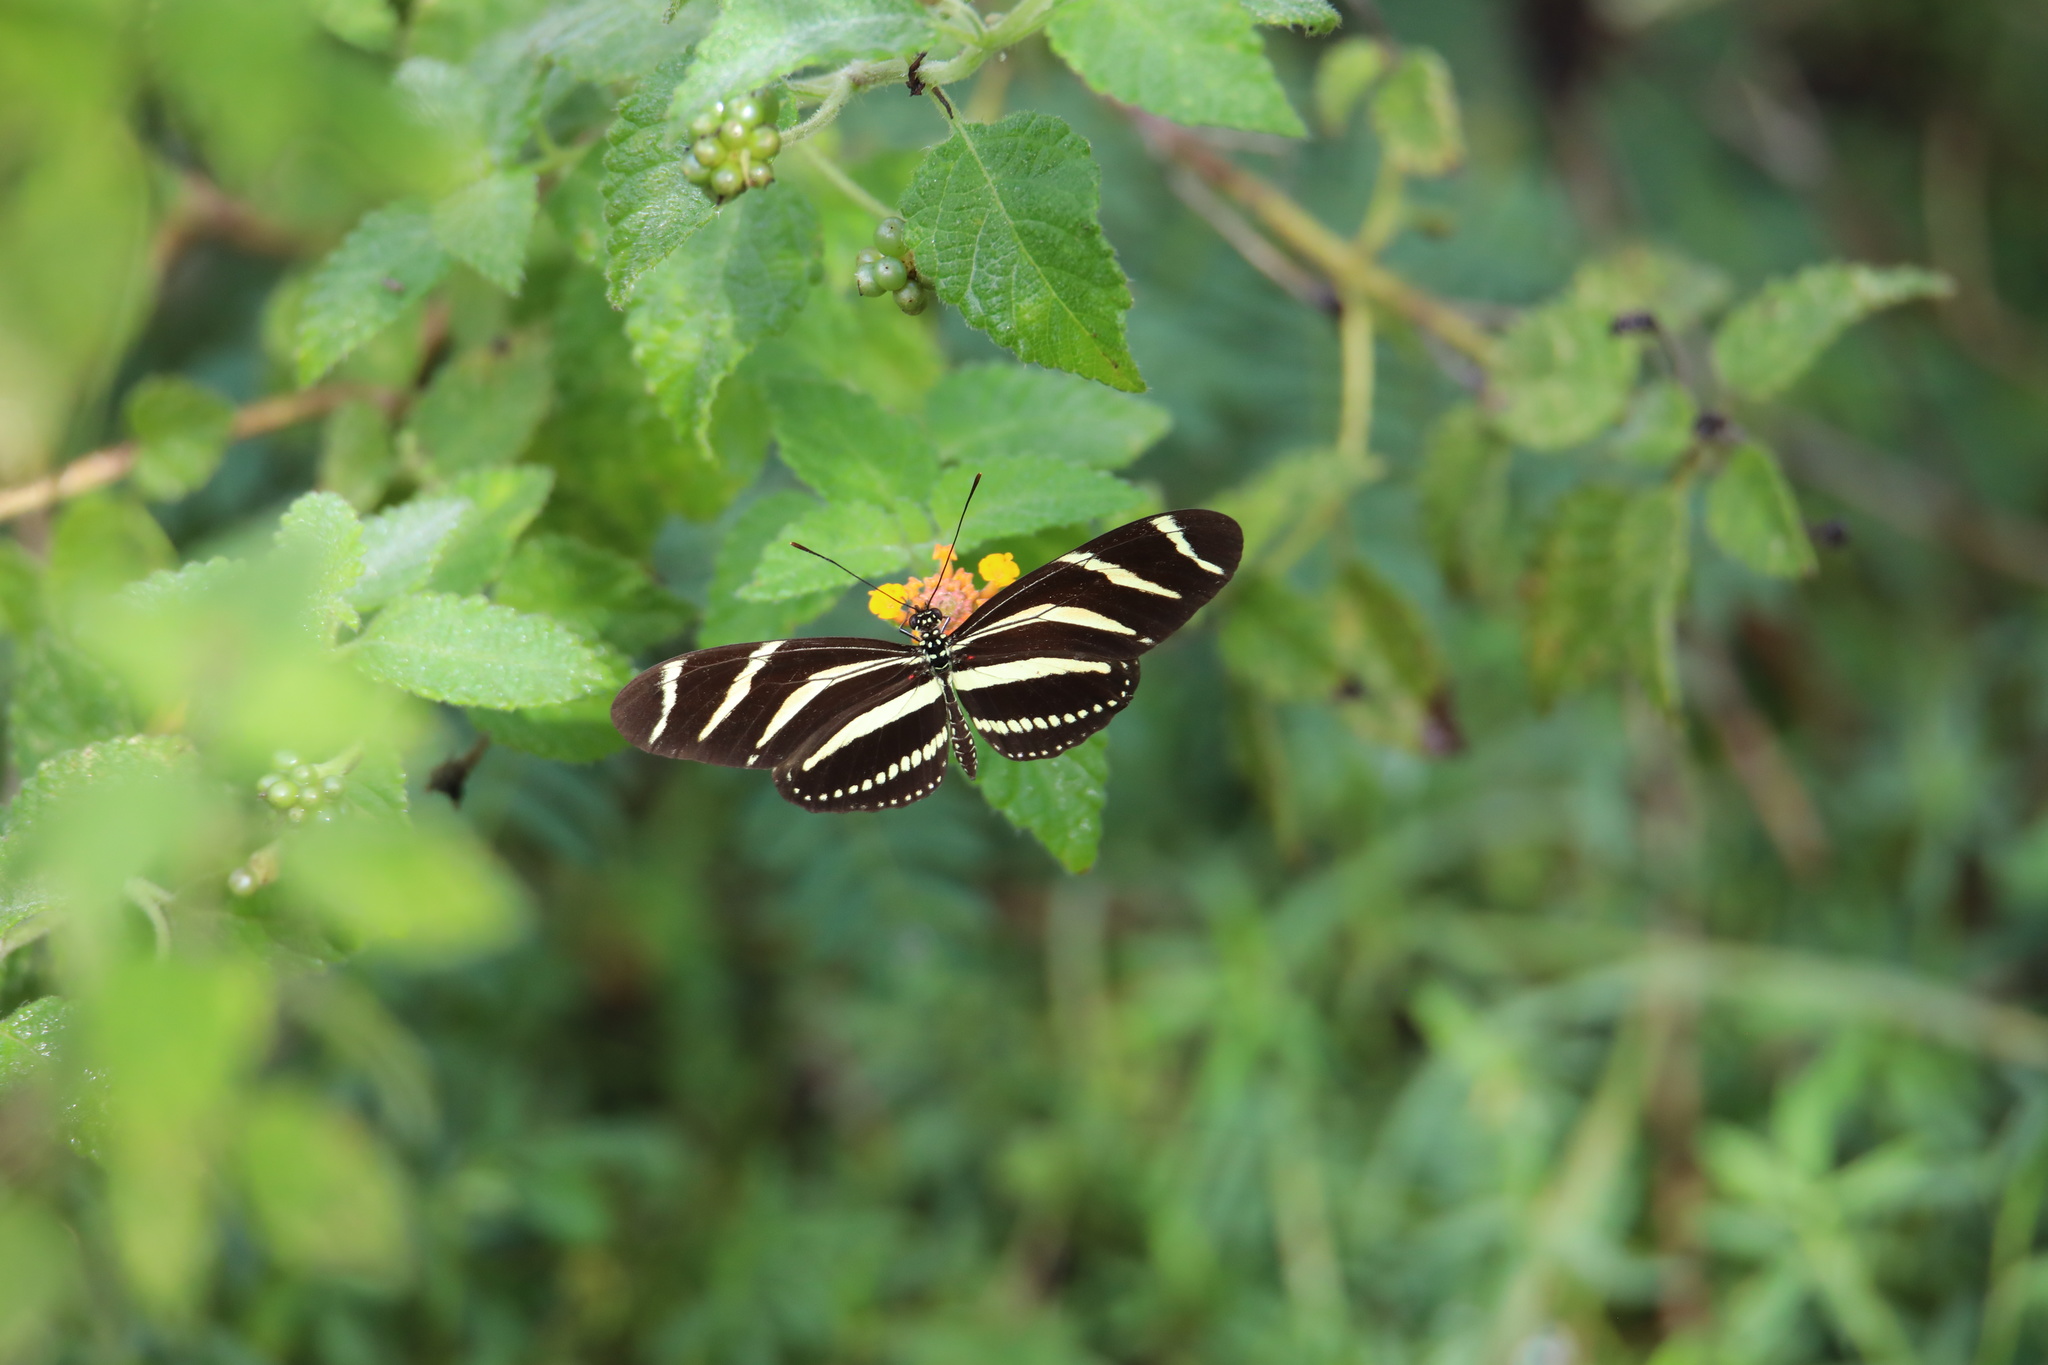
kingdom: Animalia
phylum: Arthropoda
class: Insecta
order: Lepidoptera
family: Nymphalidae
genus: Heliconius
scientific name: Heliconius charithonia
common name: Zebra long wing
